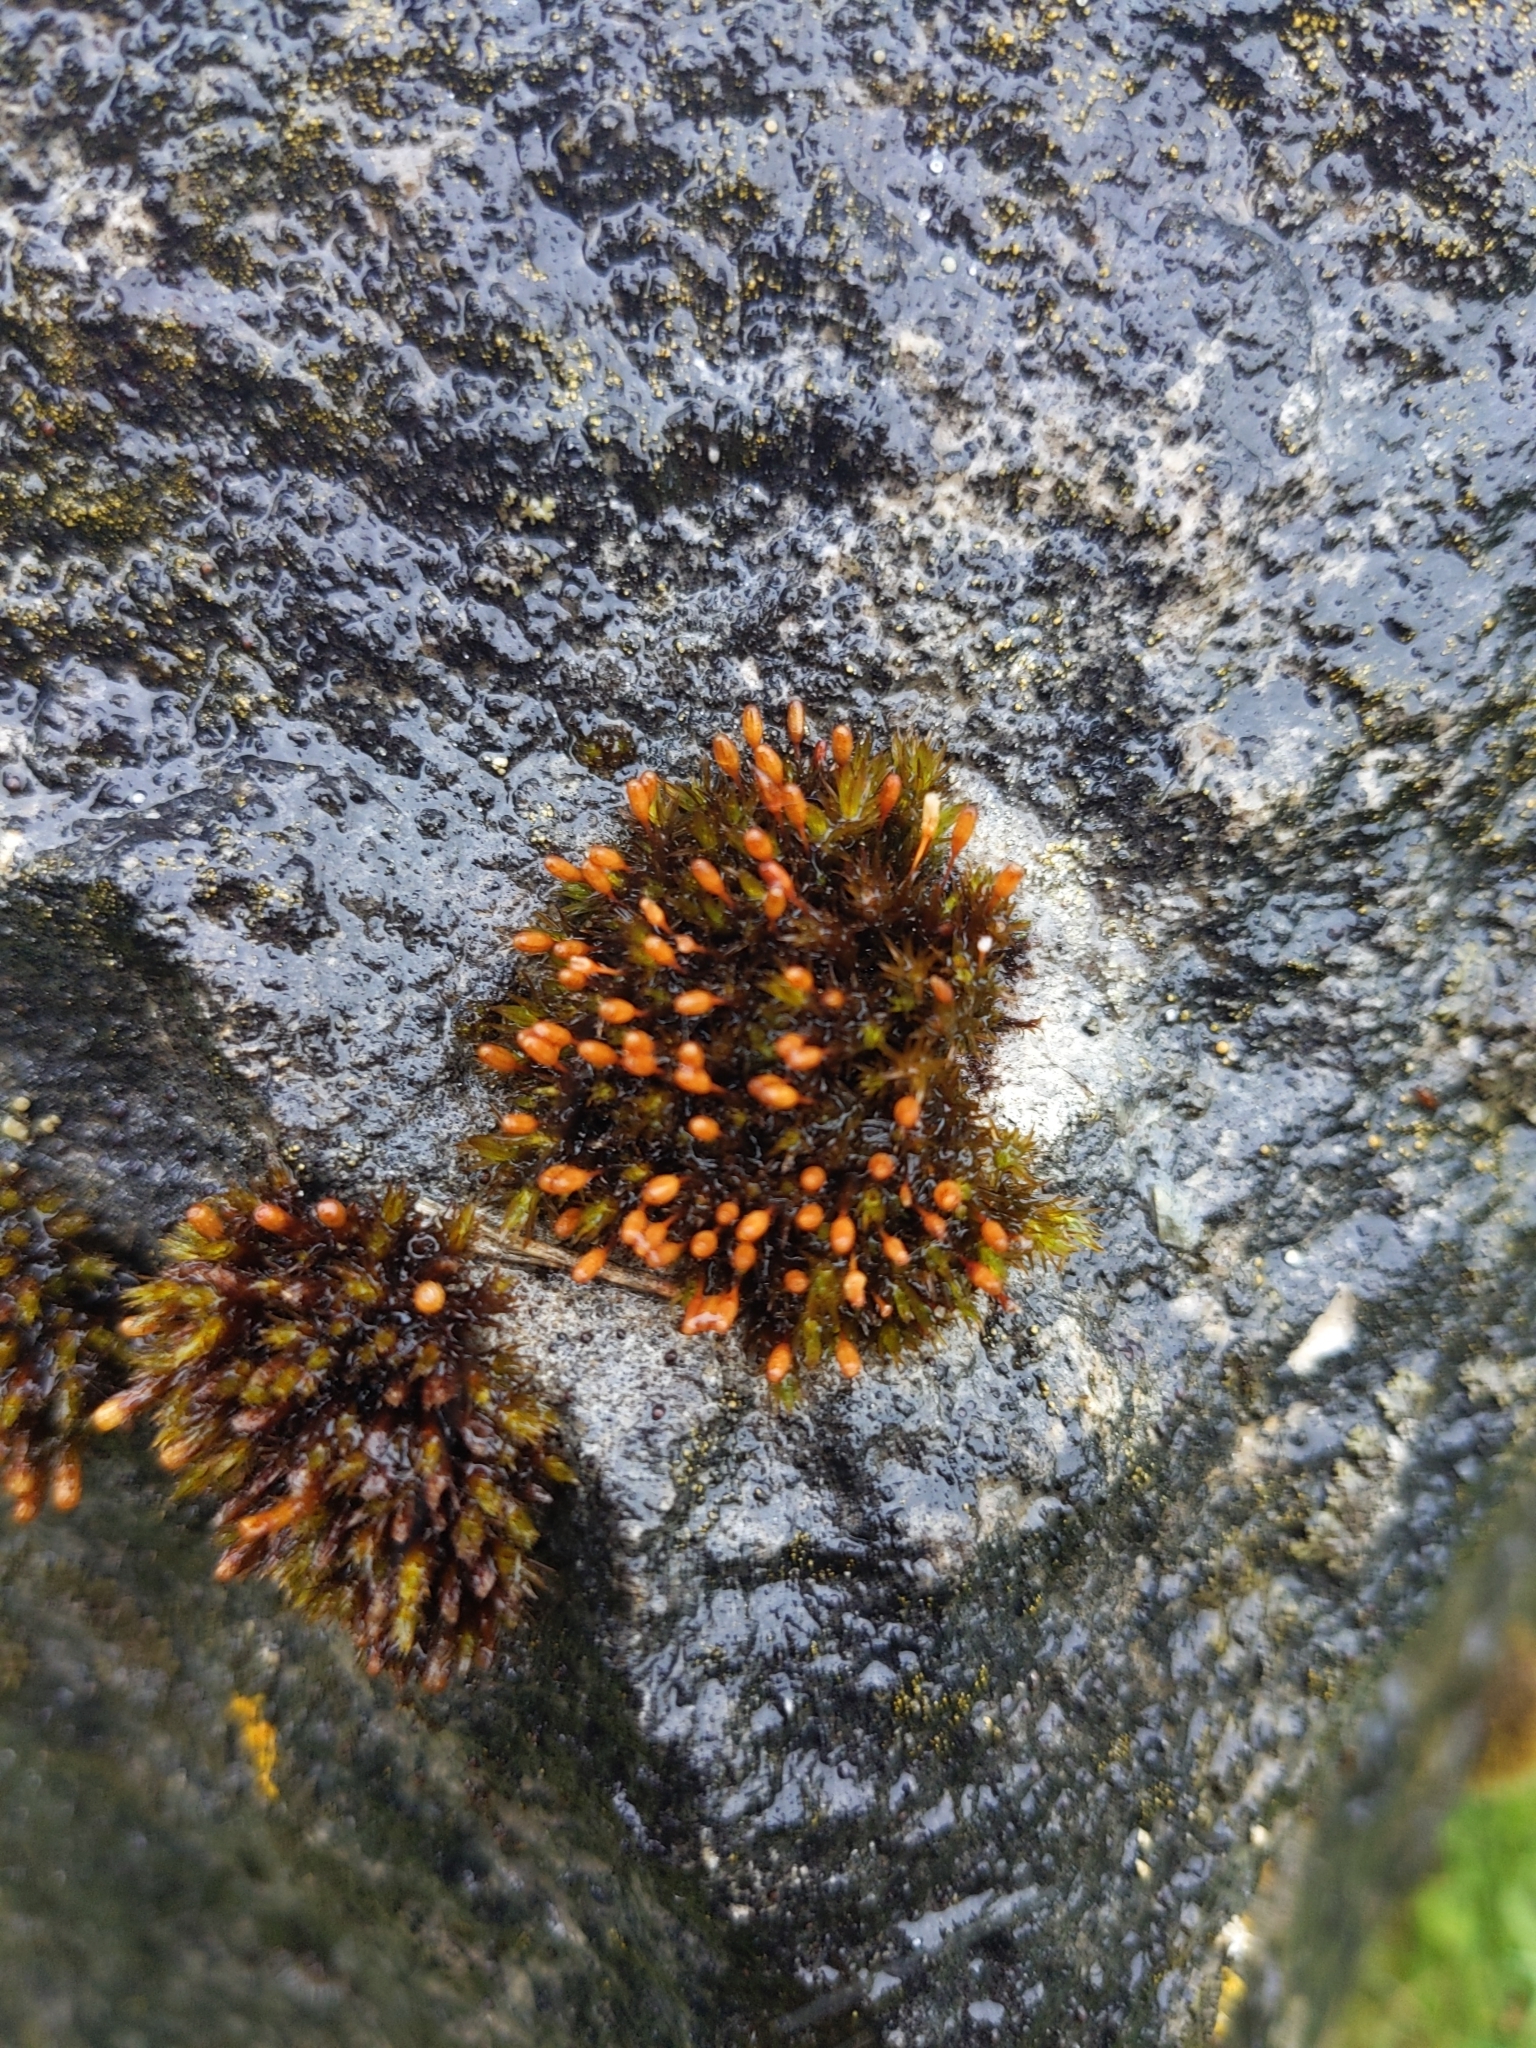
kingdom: Plantae
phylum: Bryophyta
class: Bryopsida
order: Orthotrichales
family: Orthotrichaceae
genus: Orthotrichum
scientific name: Orthotrichum anomalum
